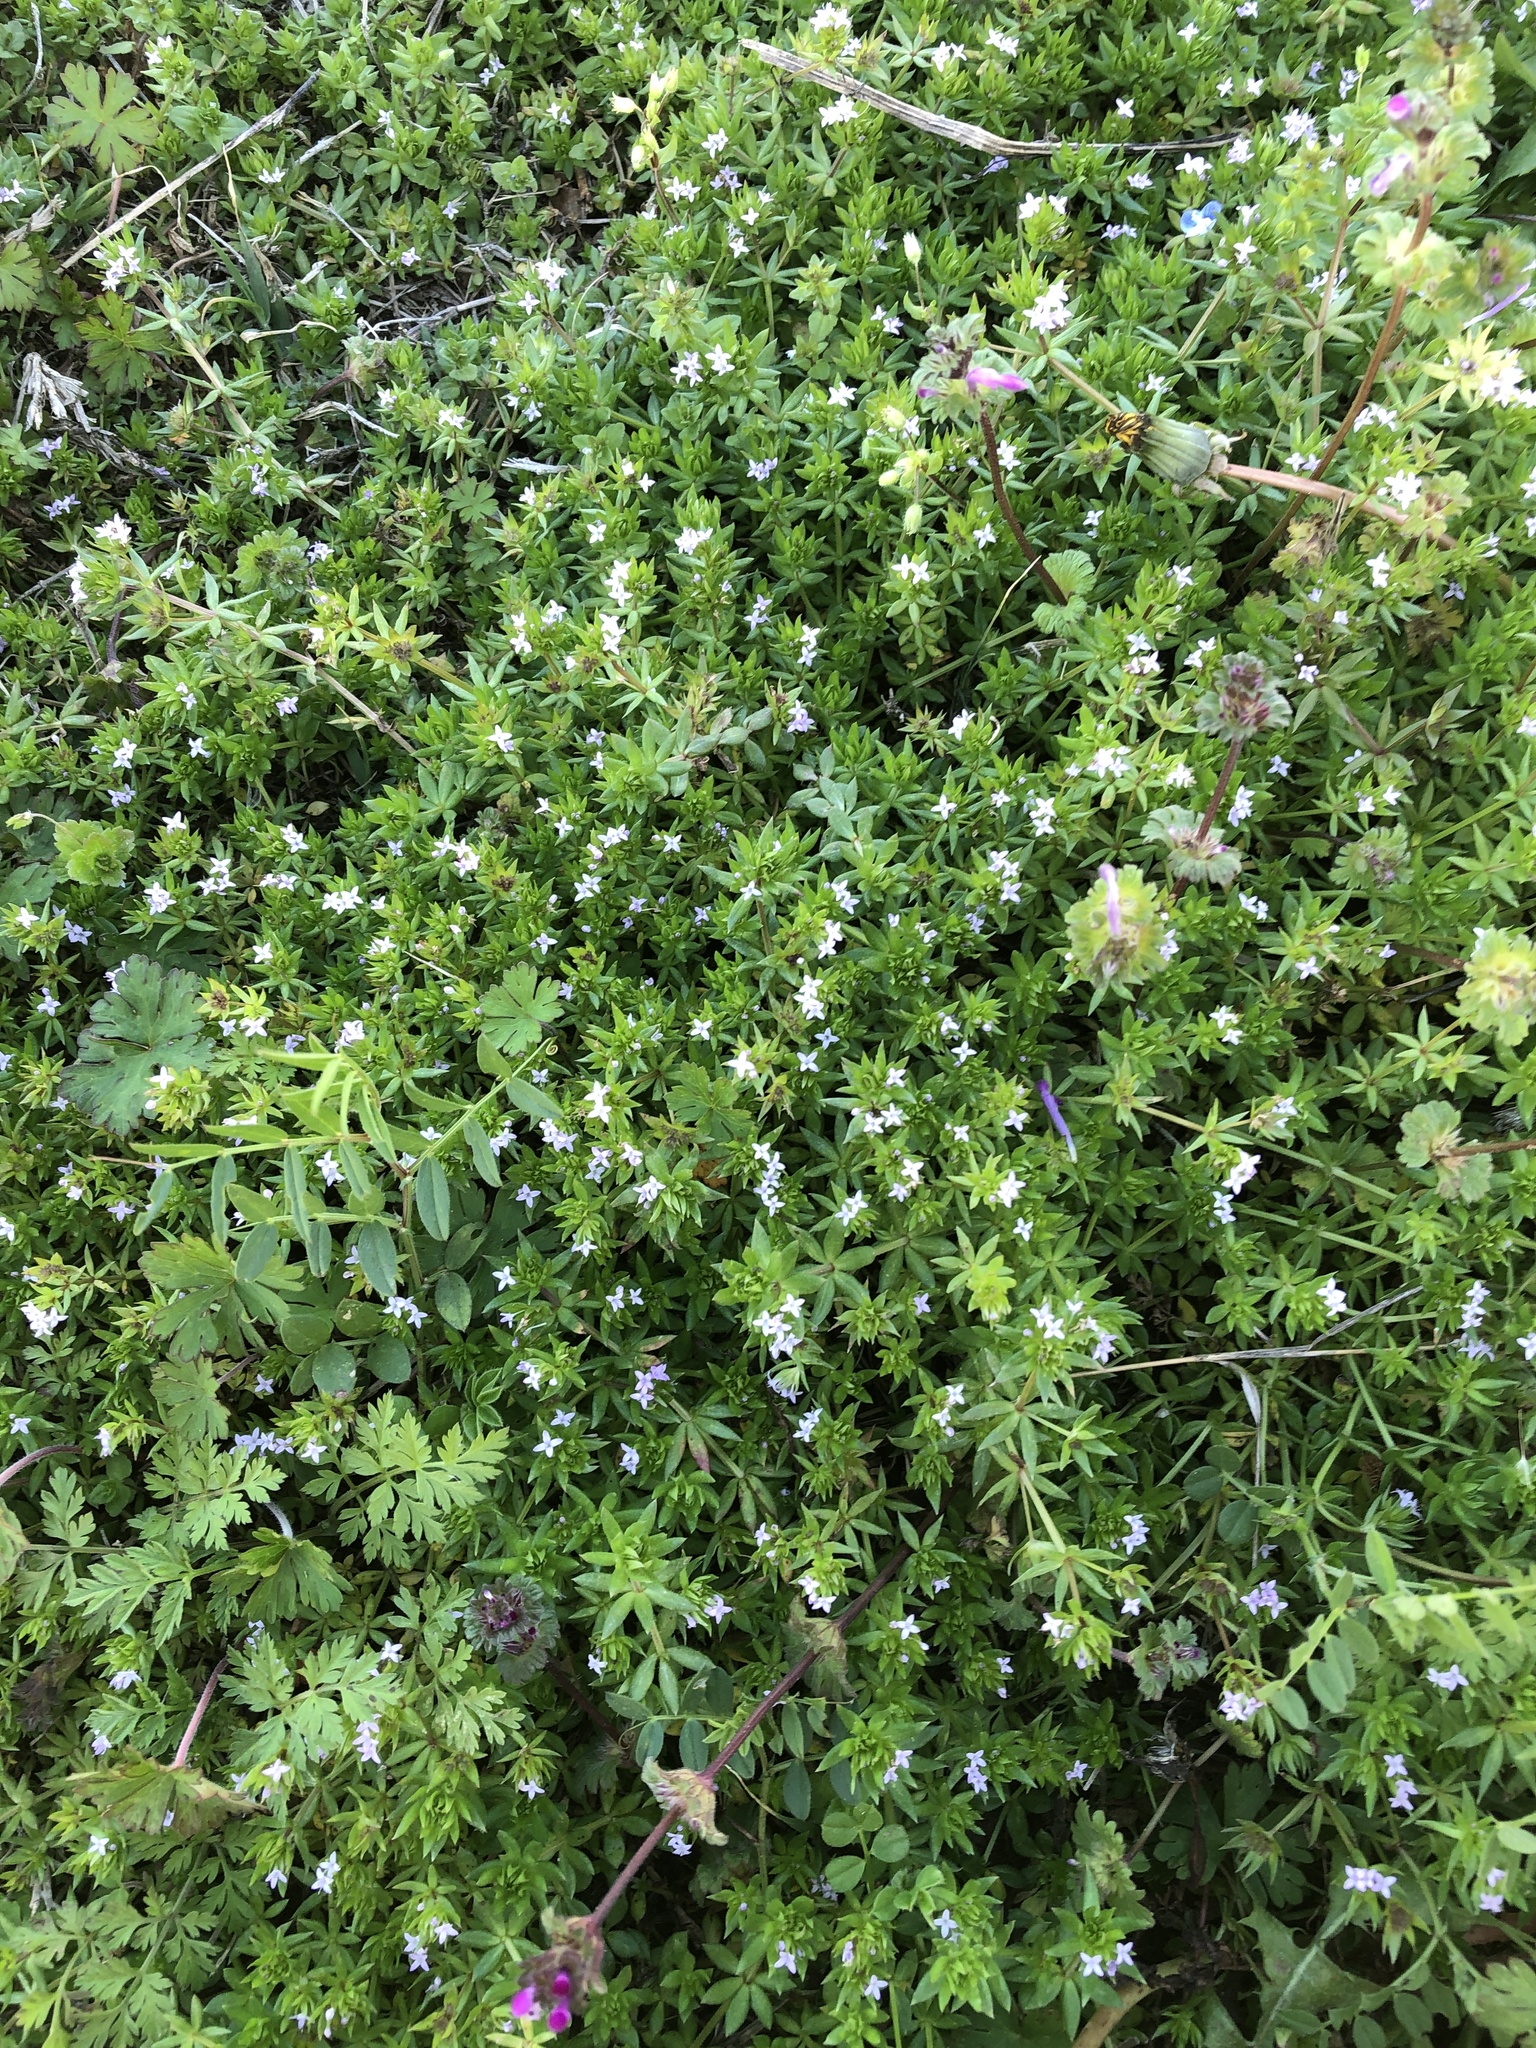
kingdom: Plantae
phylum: Tracheophyta
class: Magnoliopsida
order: Gentianales
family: Rubiaceae
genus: Sherardia
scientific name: Sherardia arvensis
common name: Field madder
